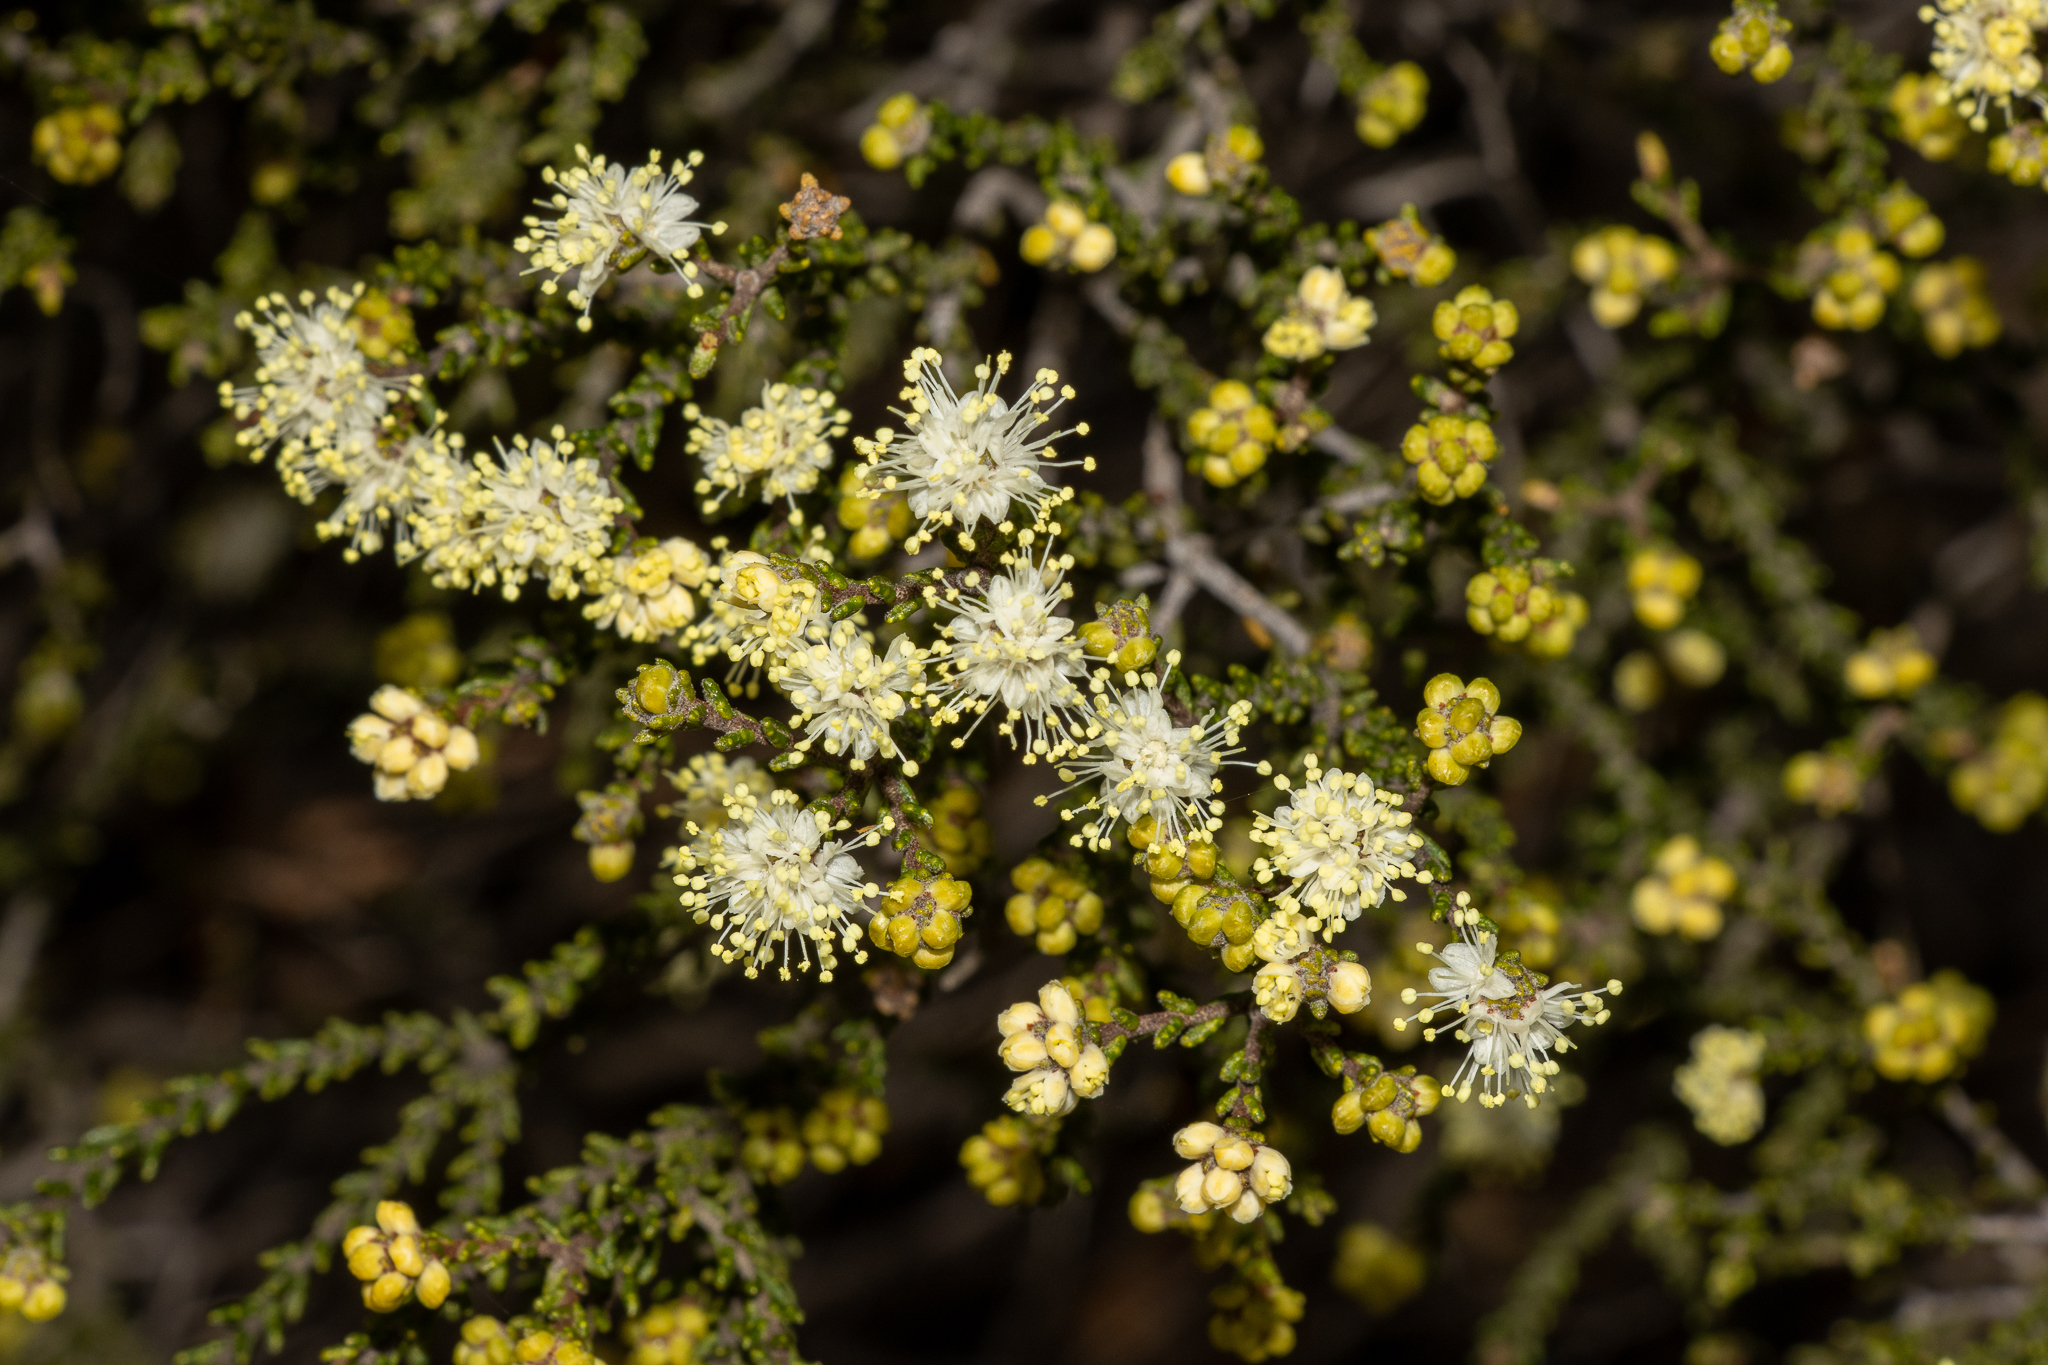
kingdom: Plantae
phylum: Tracheophyta
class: Magnoliopsida
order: Sapindales
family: Rutaceae
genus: Microcybe
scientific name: Microcybe multiflora
